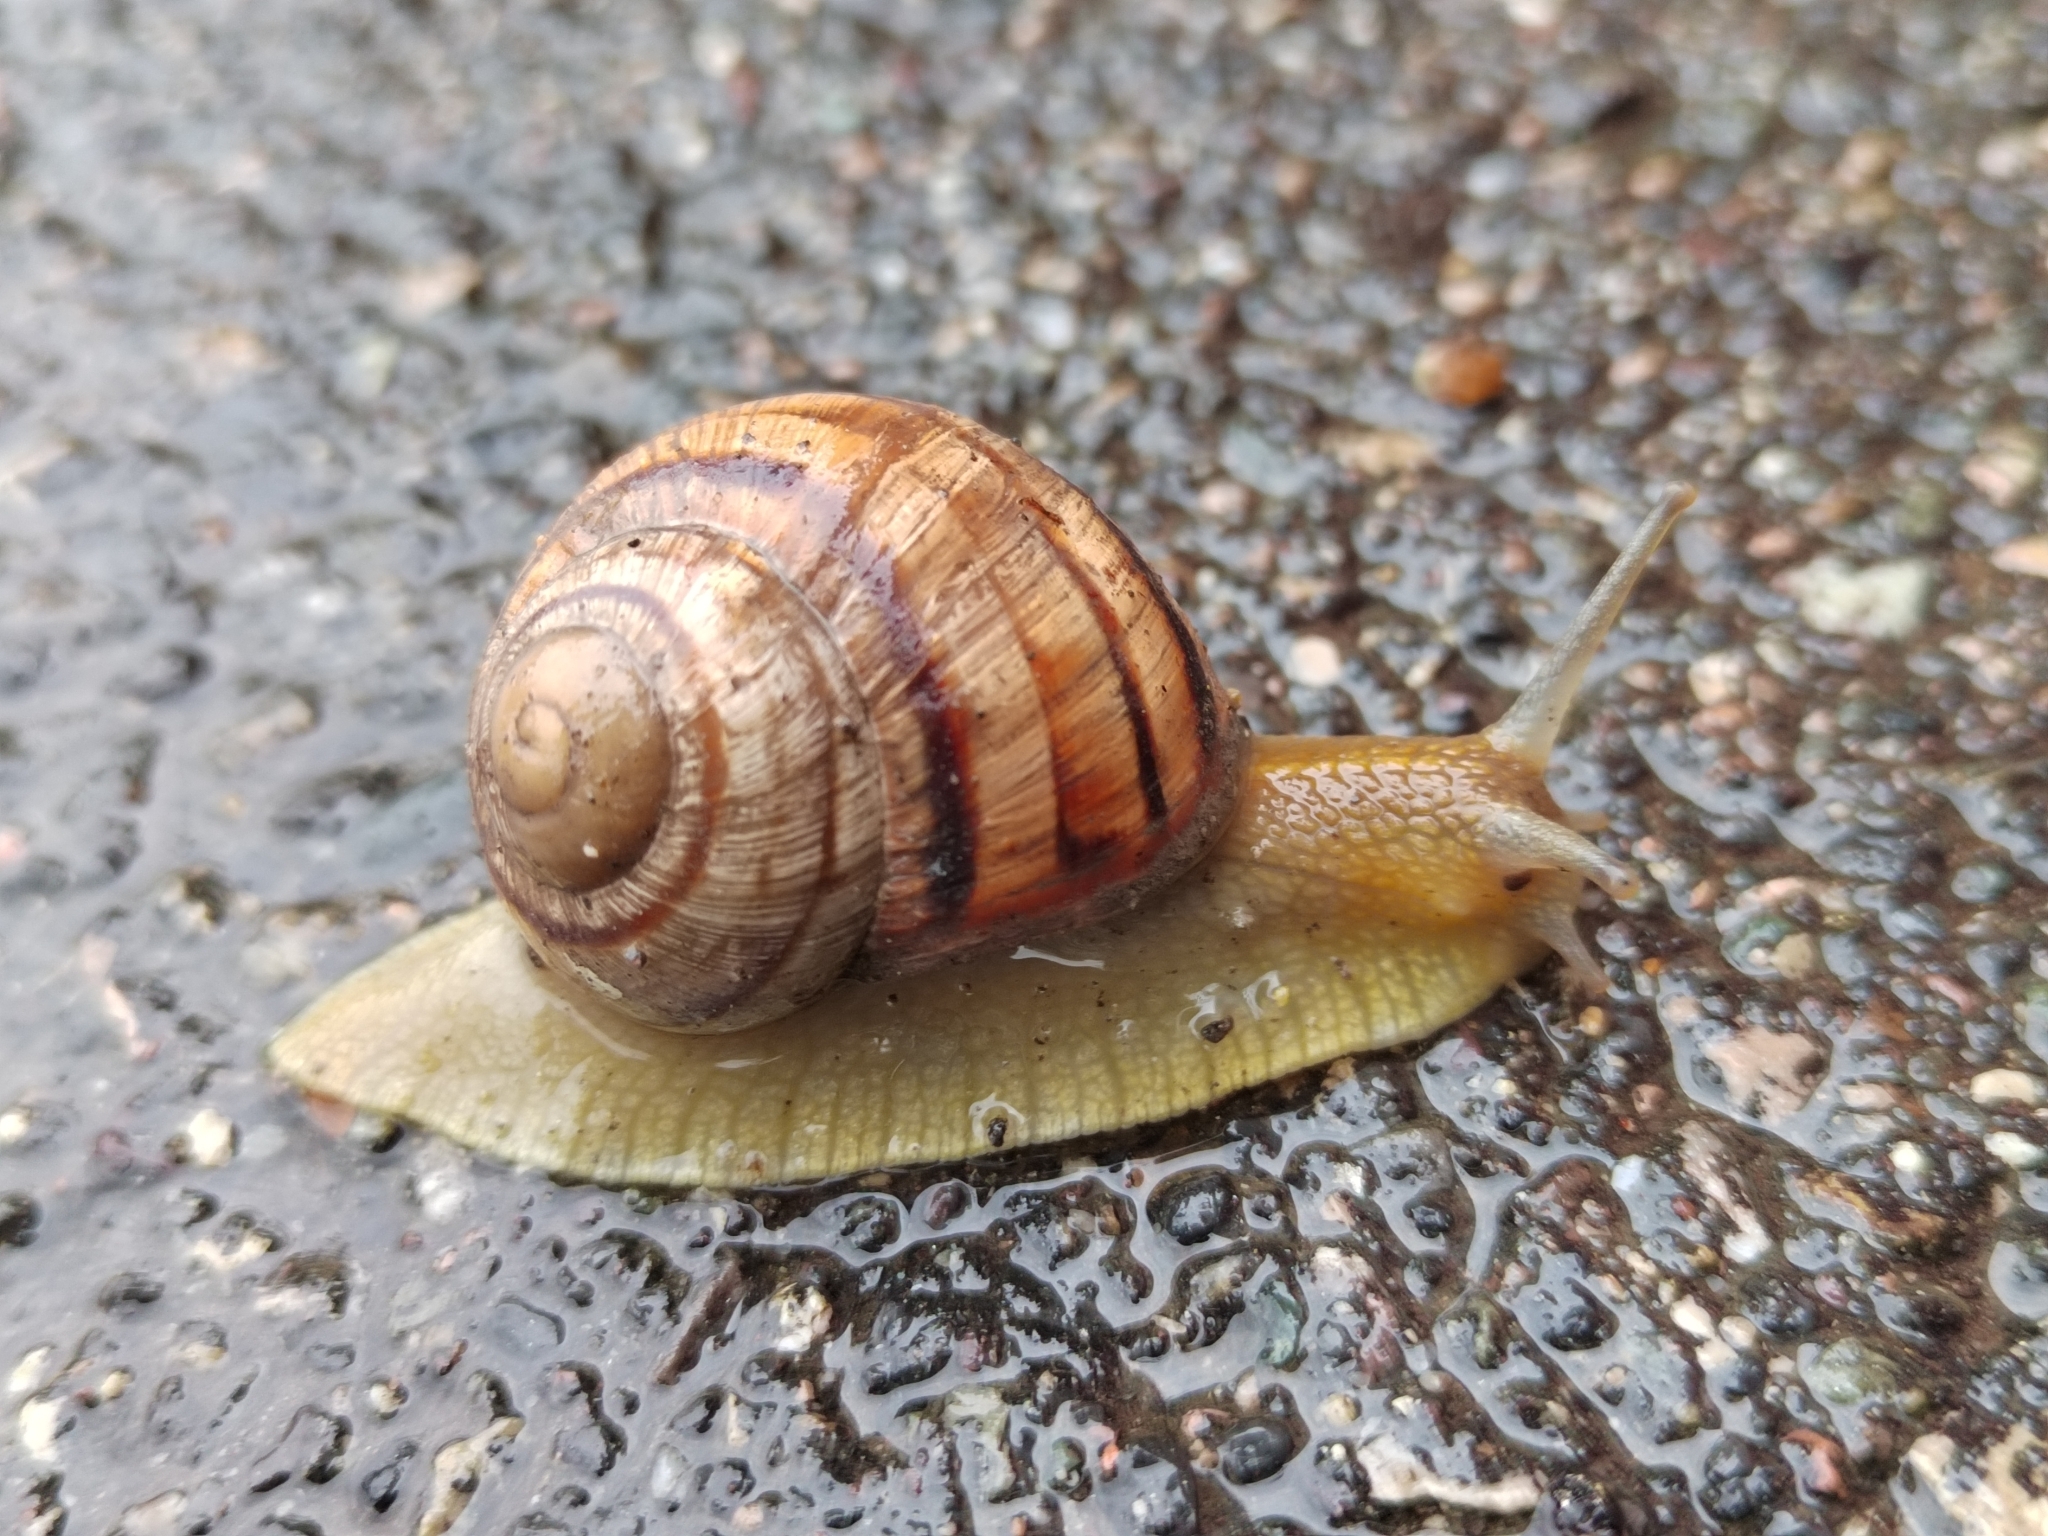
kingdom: Animalia
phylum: Mollusca
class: Gastropoda
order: Stylommatophora
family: Helicidae
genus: Helix
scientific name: Helix albescens
